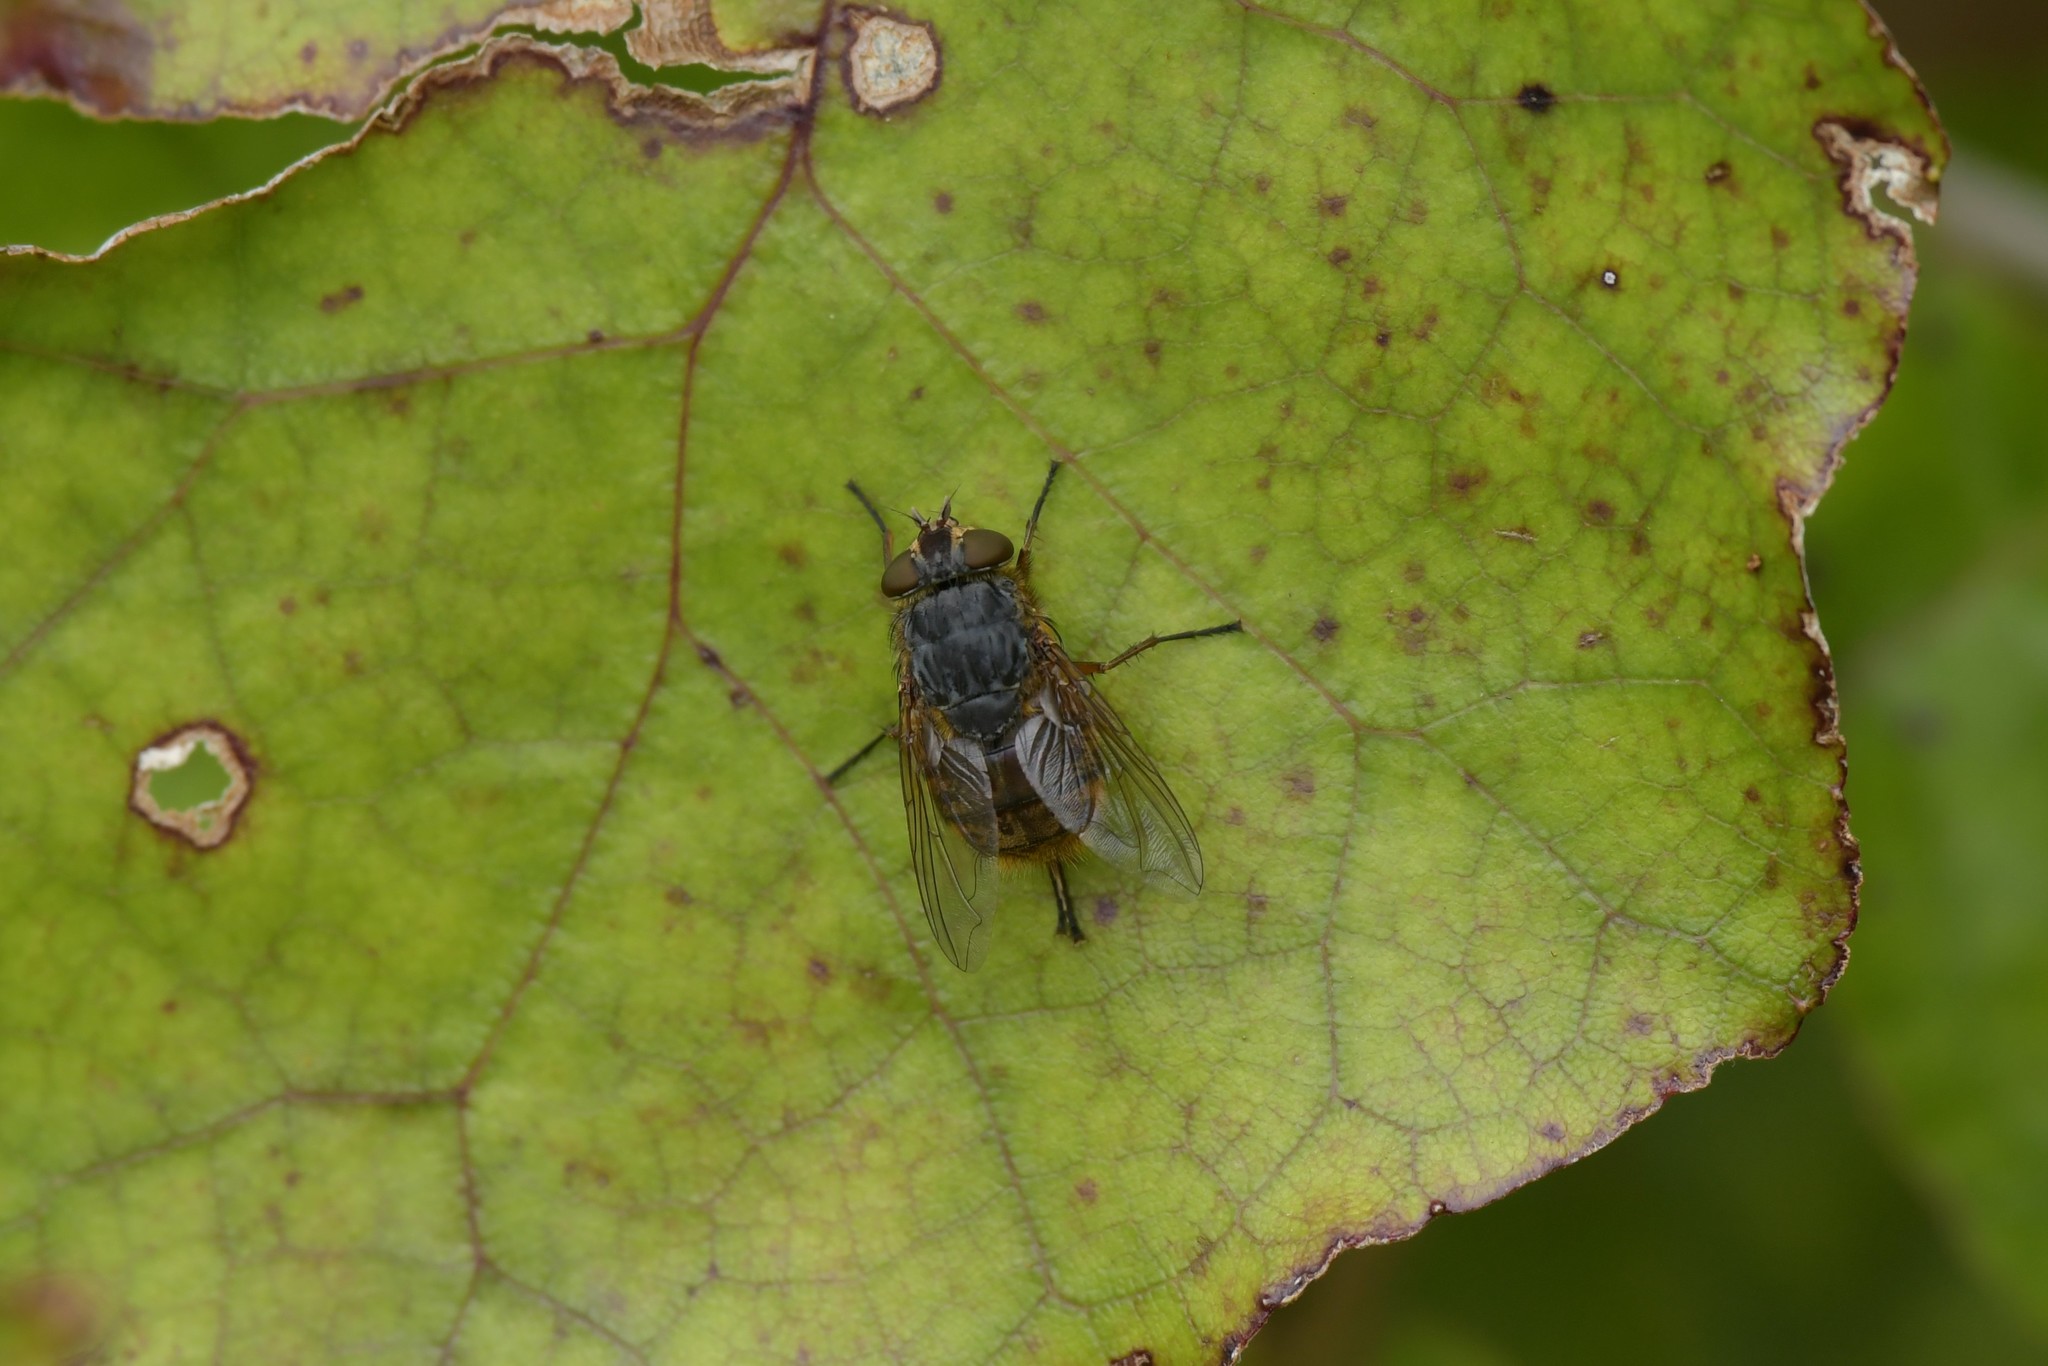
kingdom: Animalia
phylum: Arthropoda
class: Insecta
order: Diptera
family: Calliphoridae
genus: Calliphora
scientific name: Calliphora stygia
